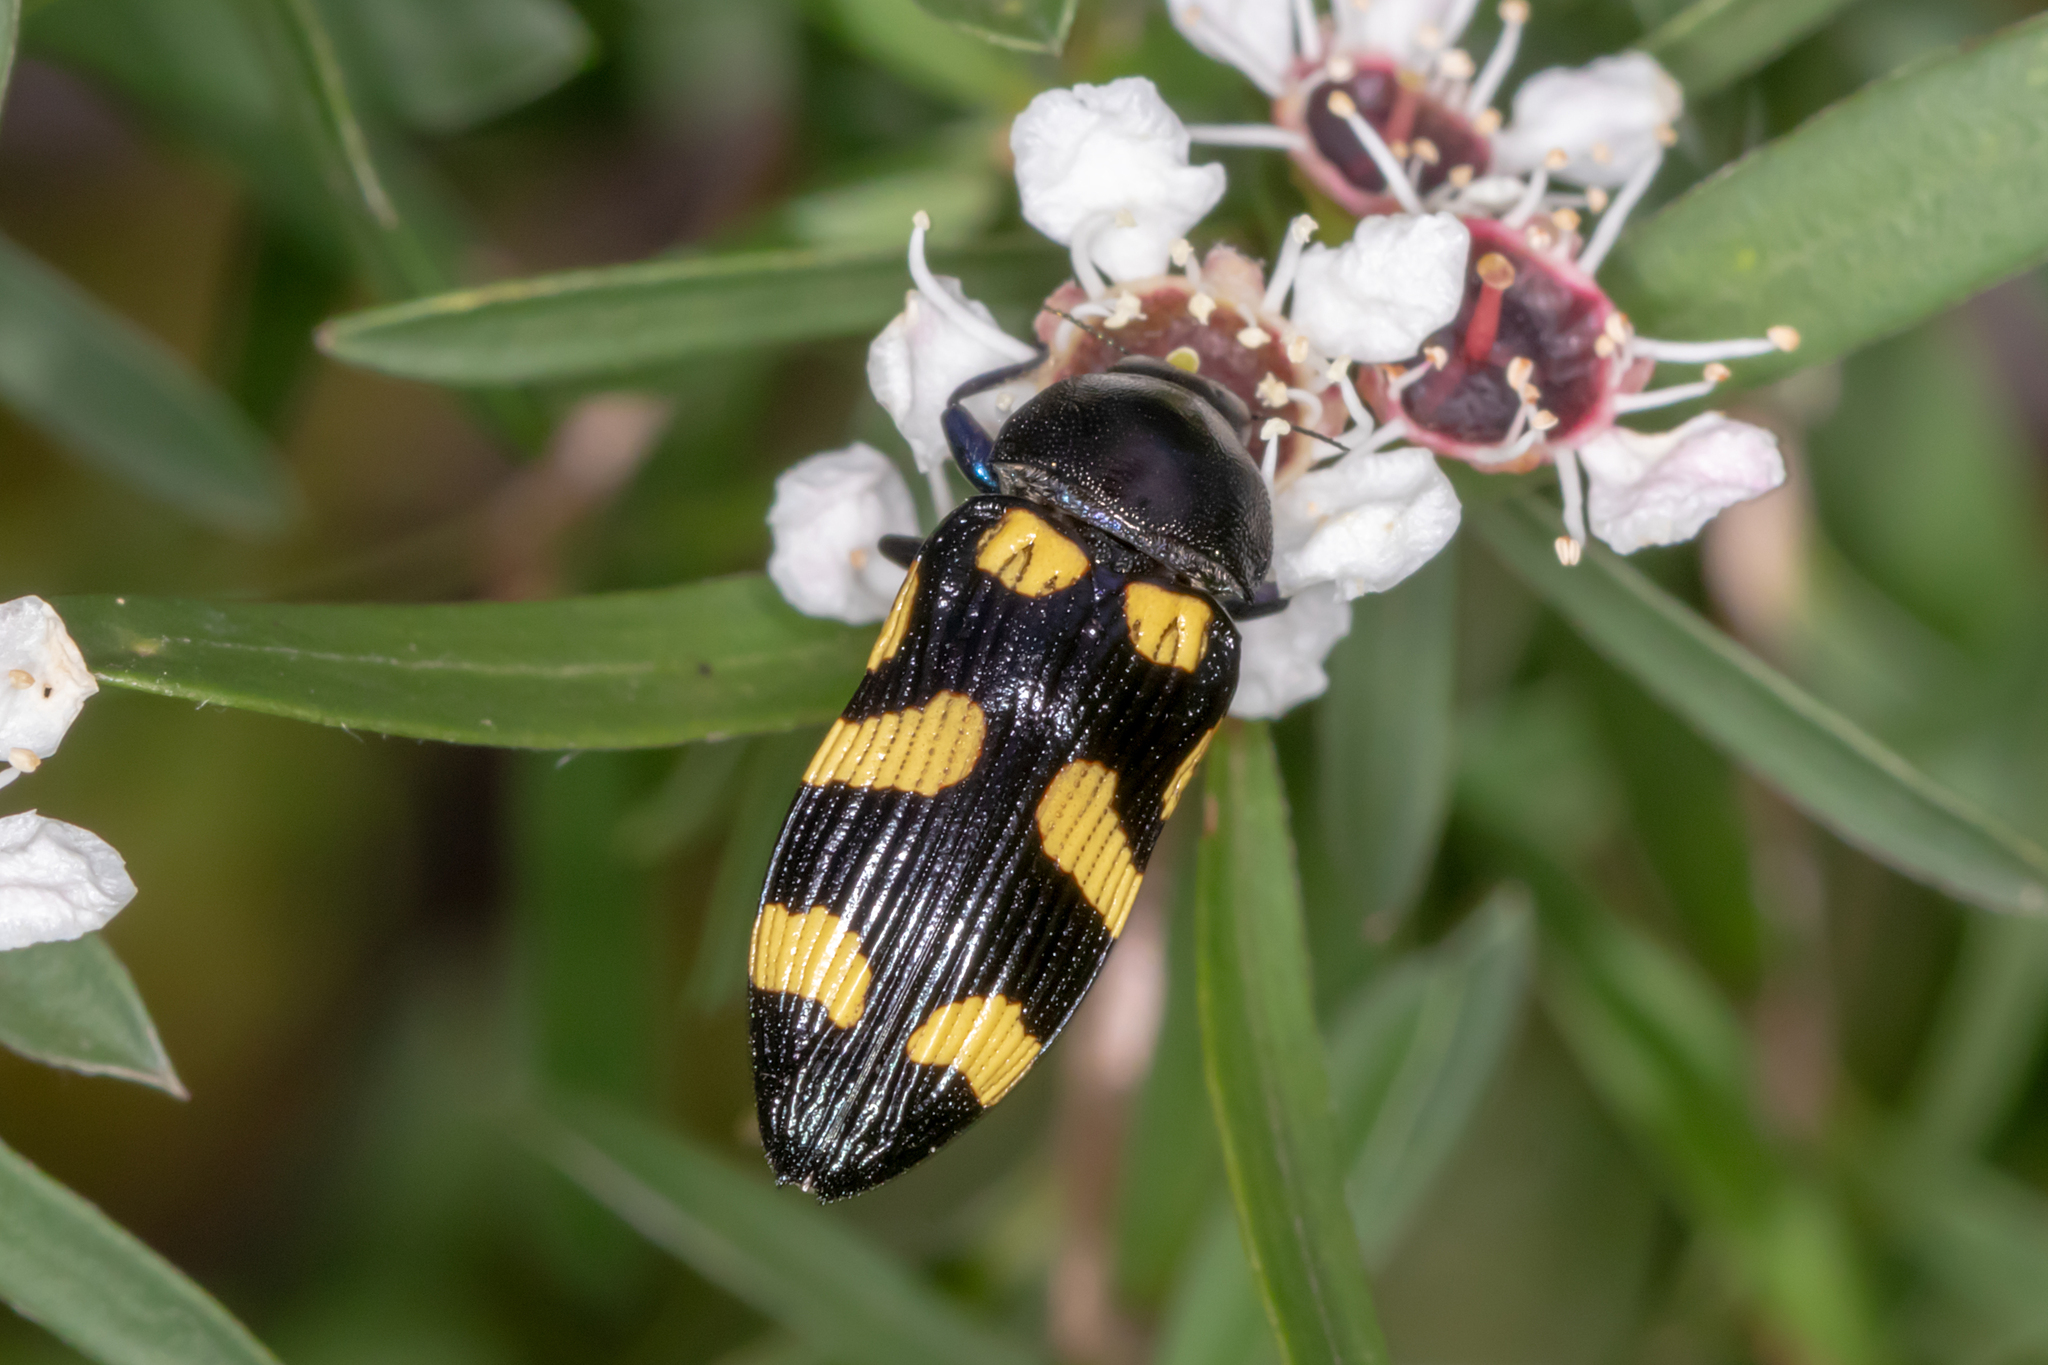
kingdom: Animalia
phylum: Arthropoda
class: Insecta
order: Coleoptera
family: Buprestidae
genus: Castiarina
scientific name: Castiarina australasiae
